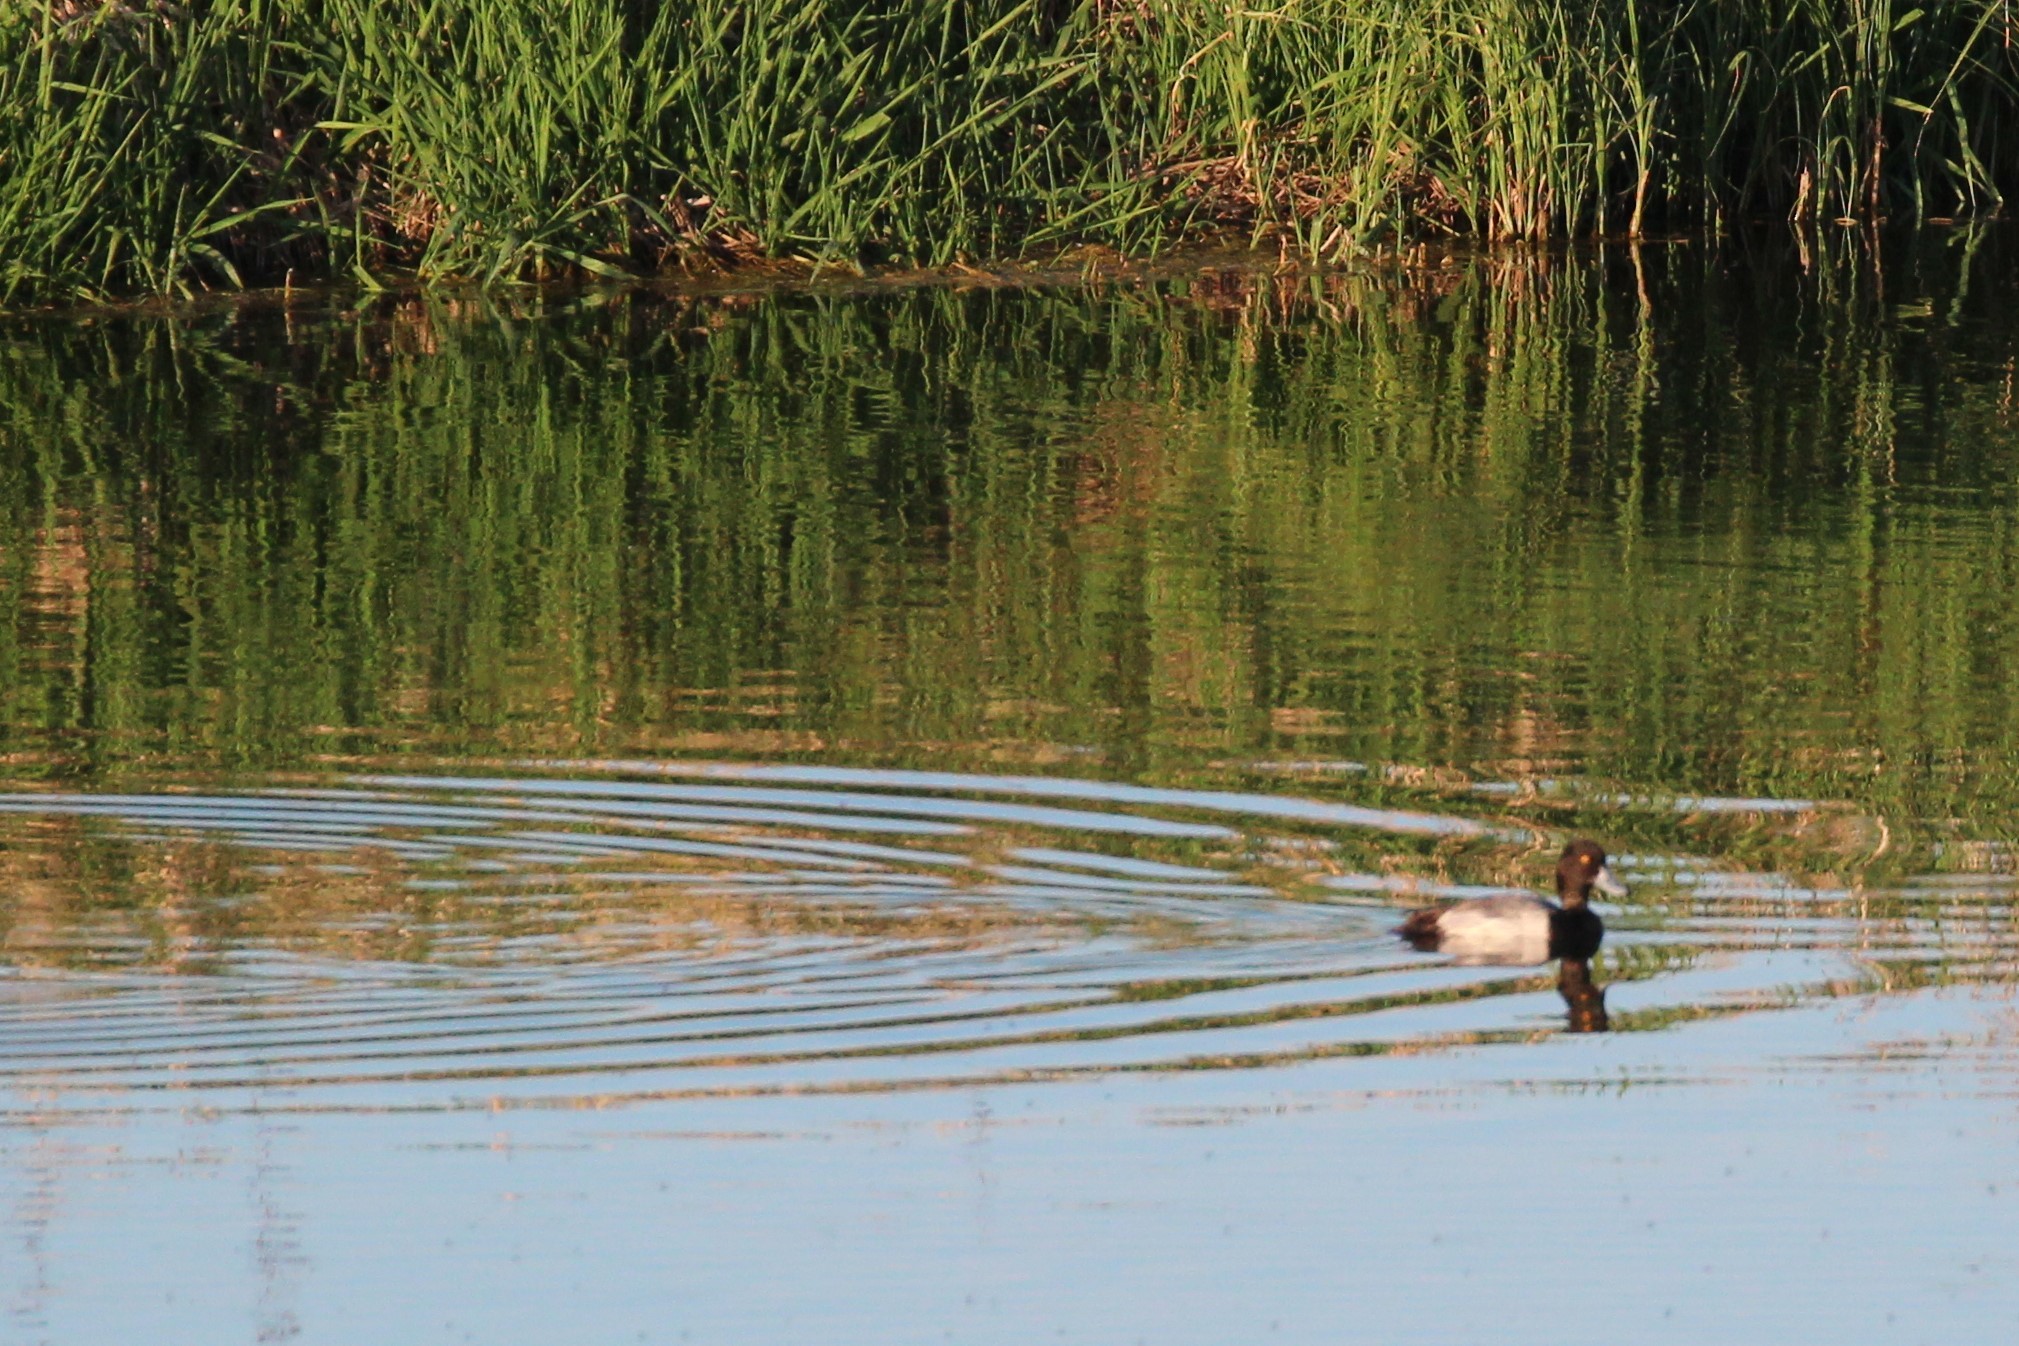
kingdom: Animalia
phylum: Chordata
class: Aves
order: Anseriformes
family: Anatidae
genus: Aythya
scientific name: Aythya affinis
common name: Lesser scaup
